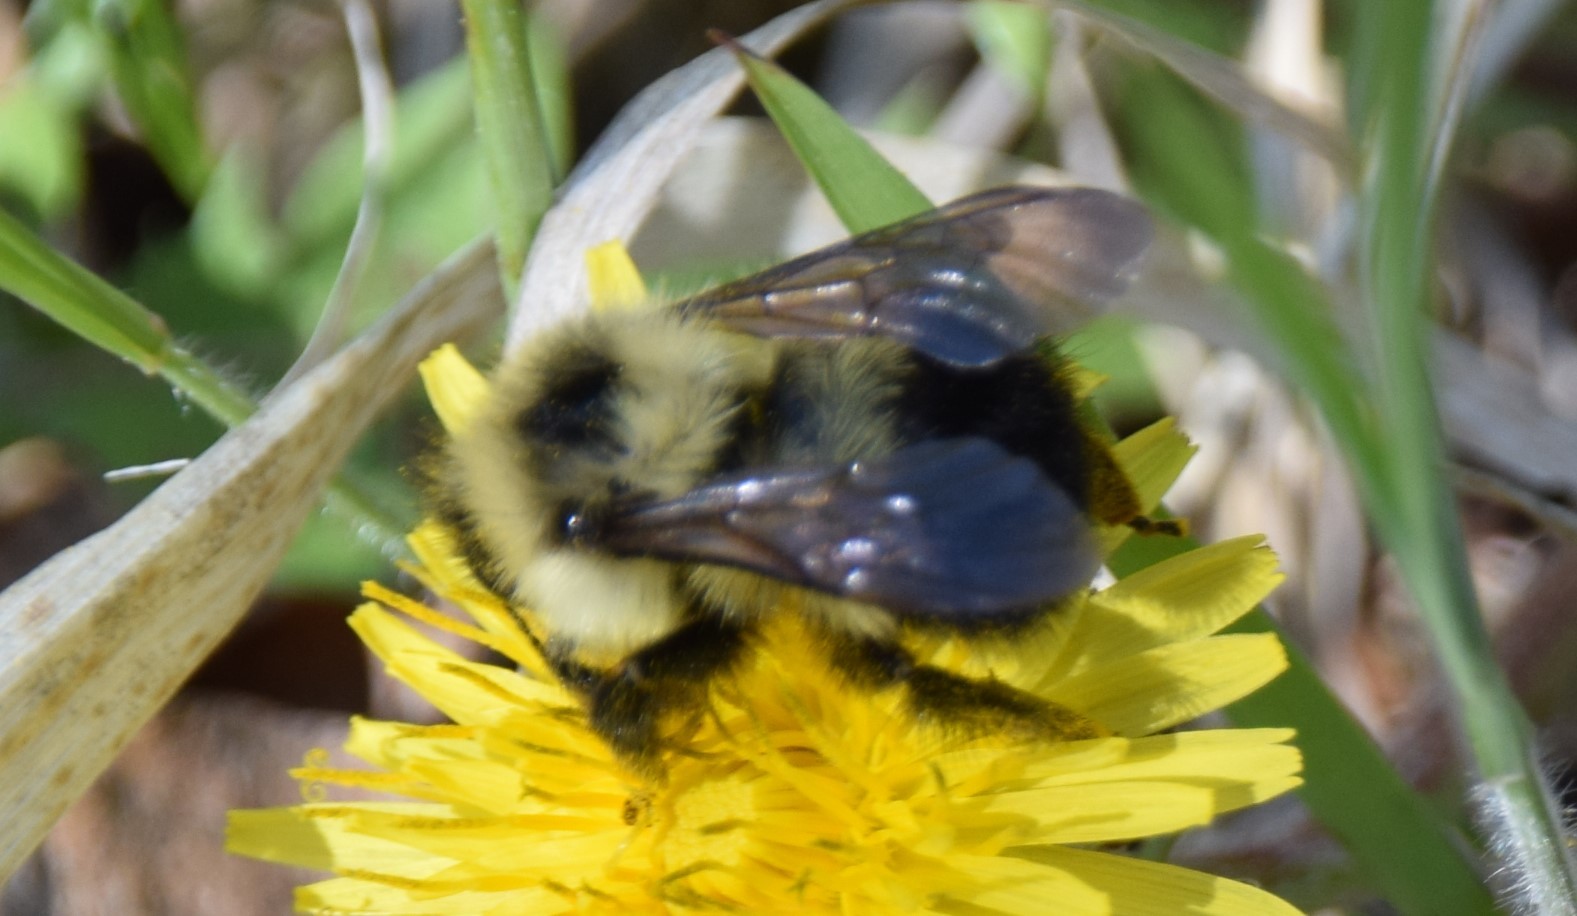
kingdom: Animalia
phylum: Arthropoda
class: Insecta
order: Hymenoptera
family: Apidae
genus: Pyrobombus
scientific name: Pyrobombus
